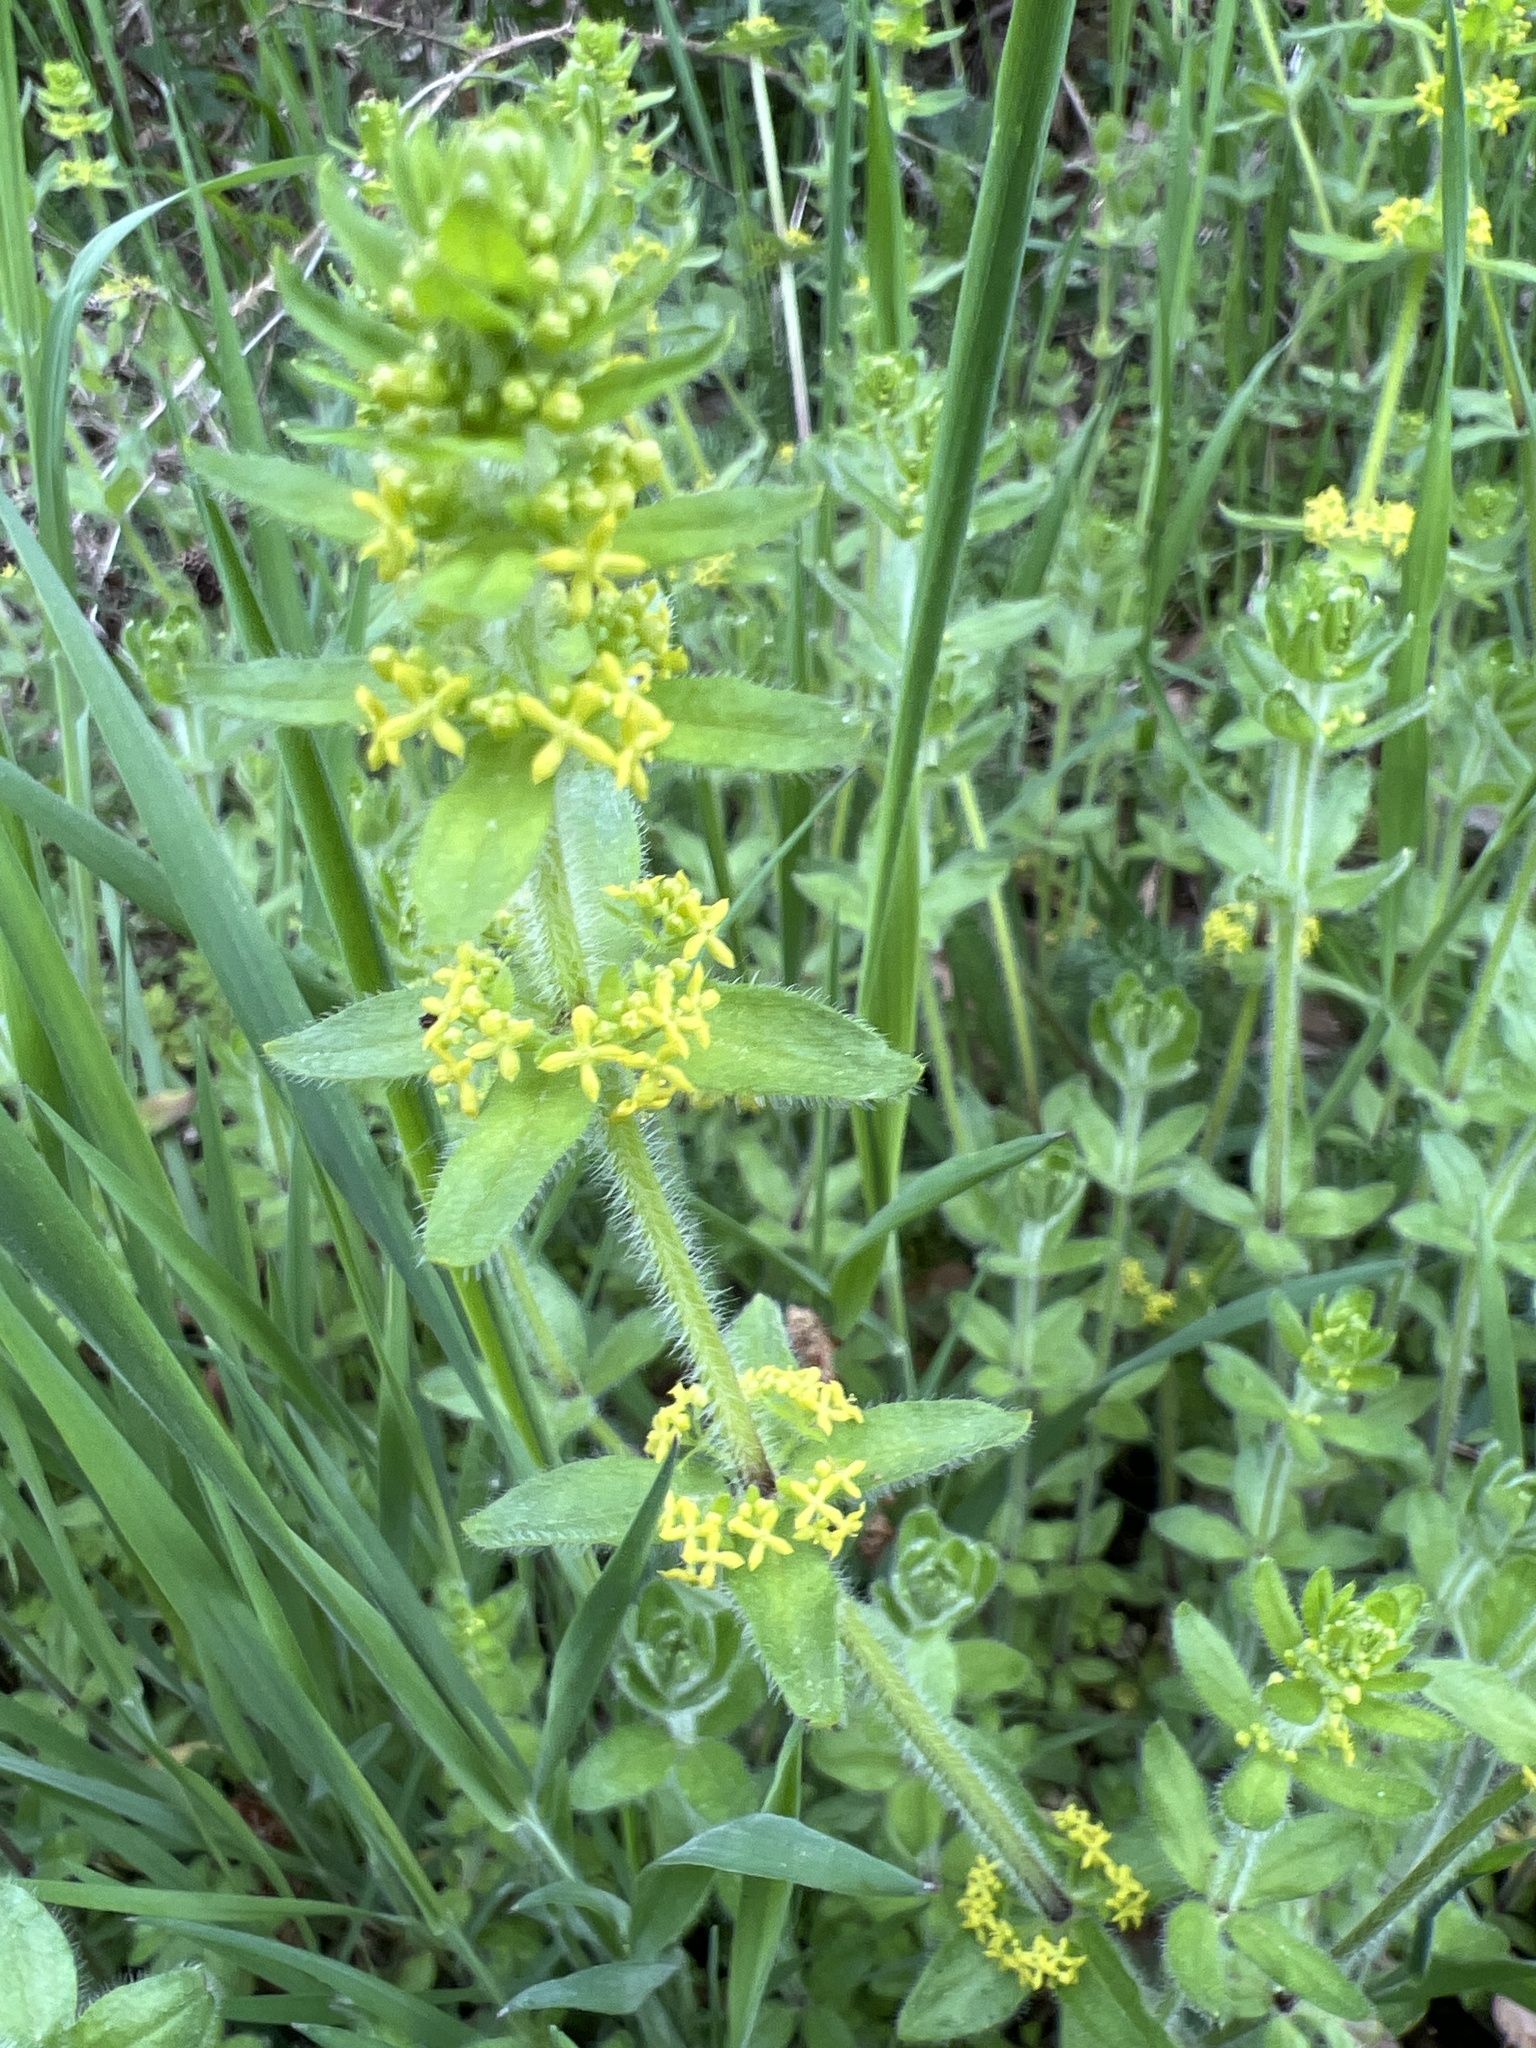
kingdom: Plantae
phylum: Tracheophyta
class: Magnoliopsida
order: Gentianales
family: Rubiaceae
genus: Cruciata
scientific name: Cruciata laevipes
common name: Crosswort
